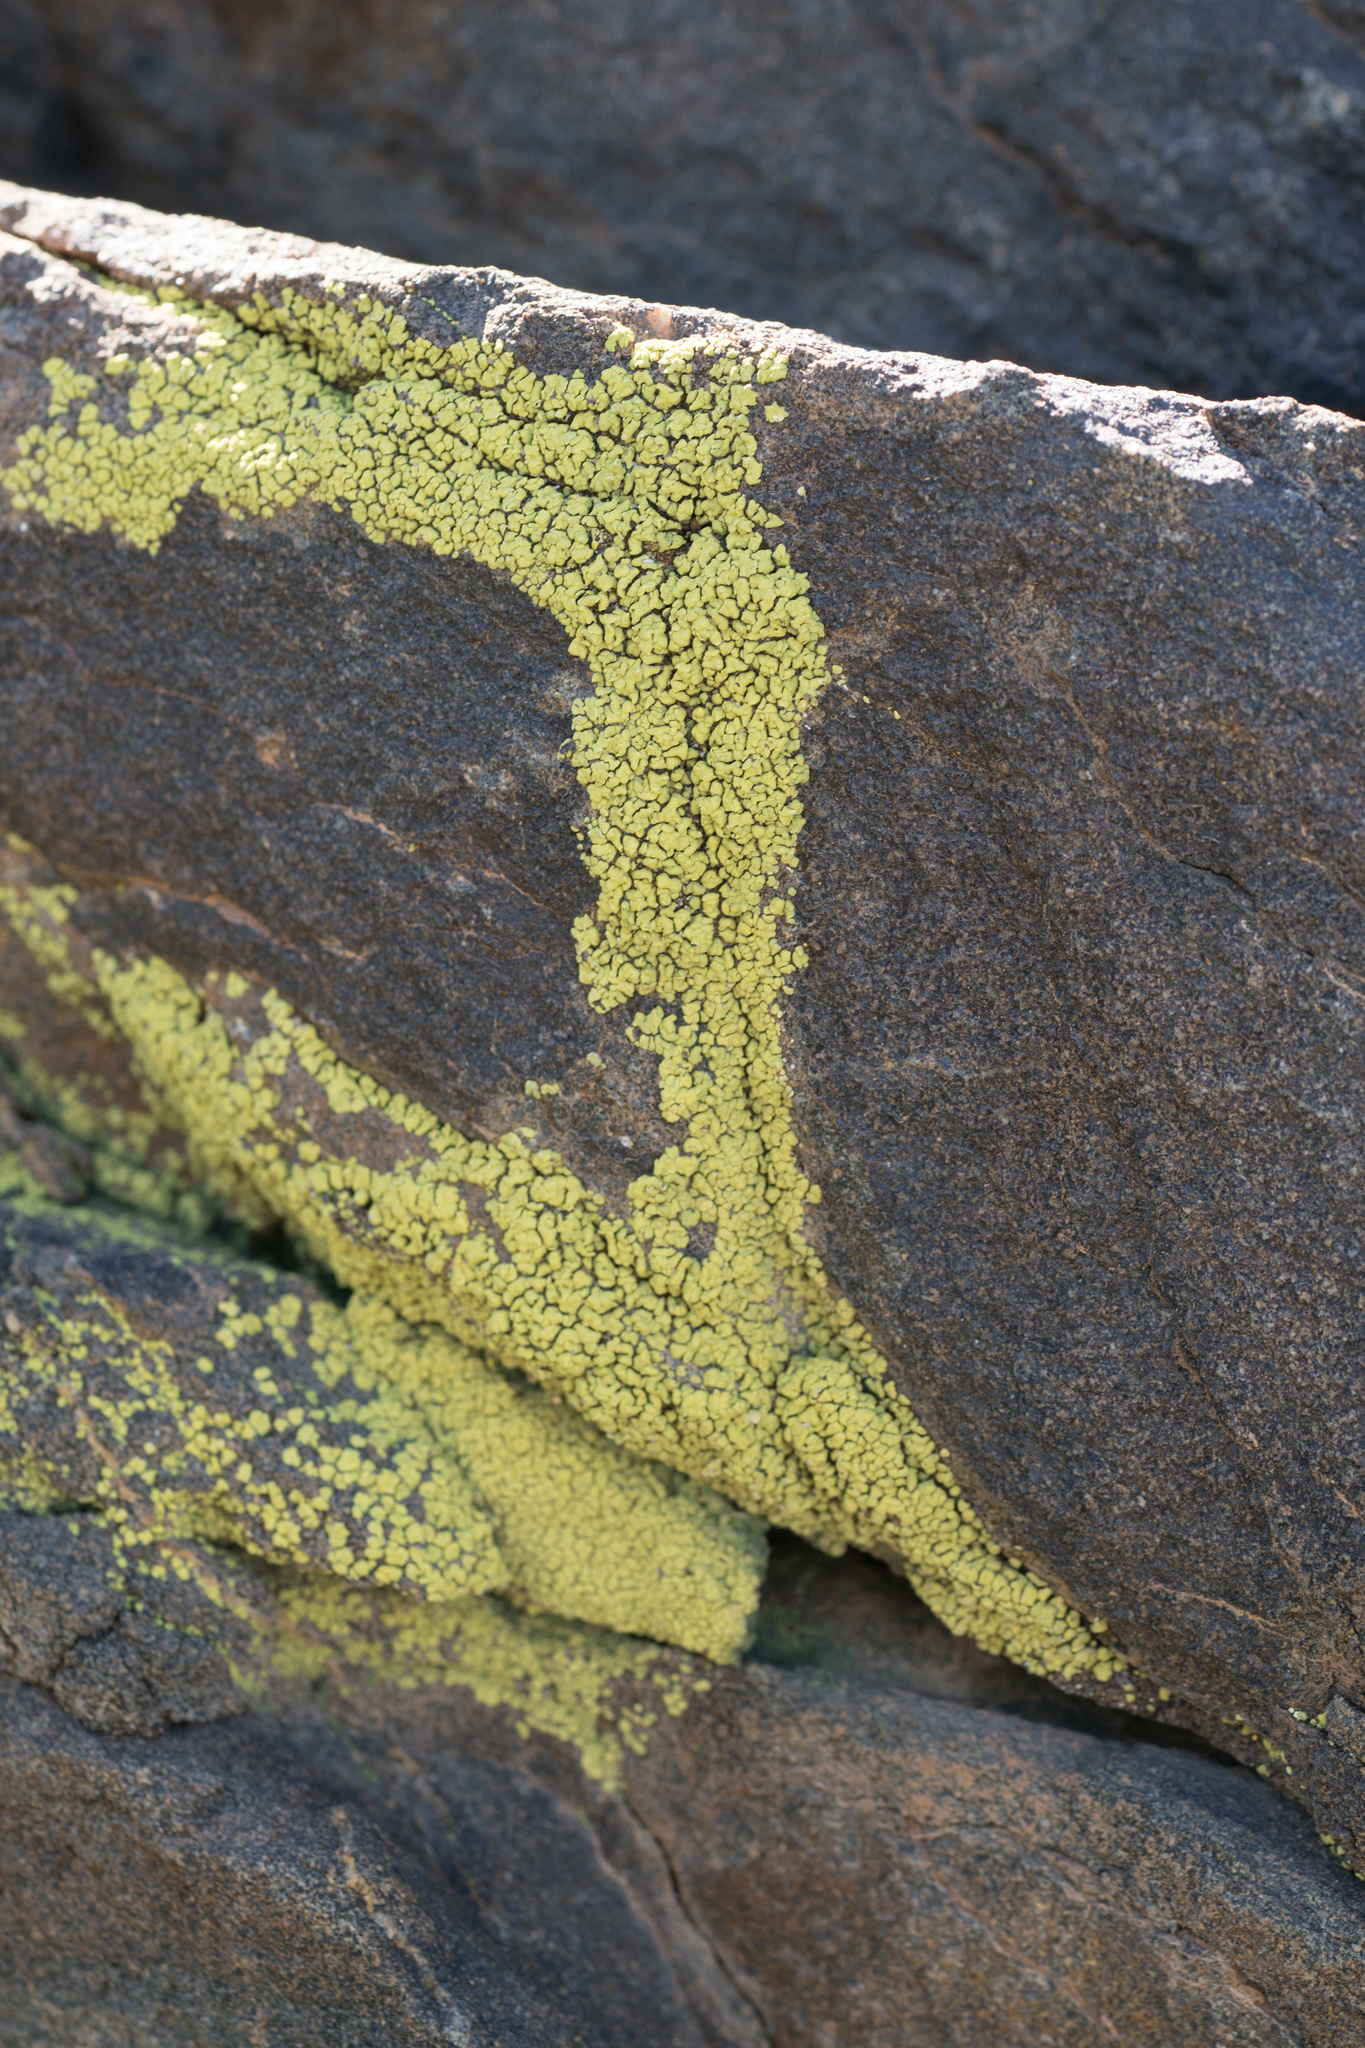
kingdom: Fungi
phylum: Ascomycota
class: Lecanoromycetes
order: Acarosporales
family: Acarosporaceae
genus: Acarospora
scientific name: Acarospora socialis
